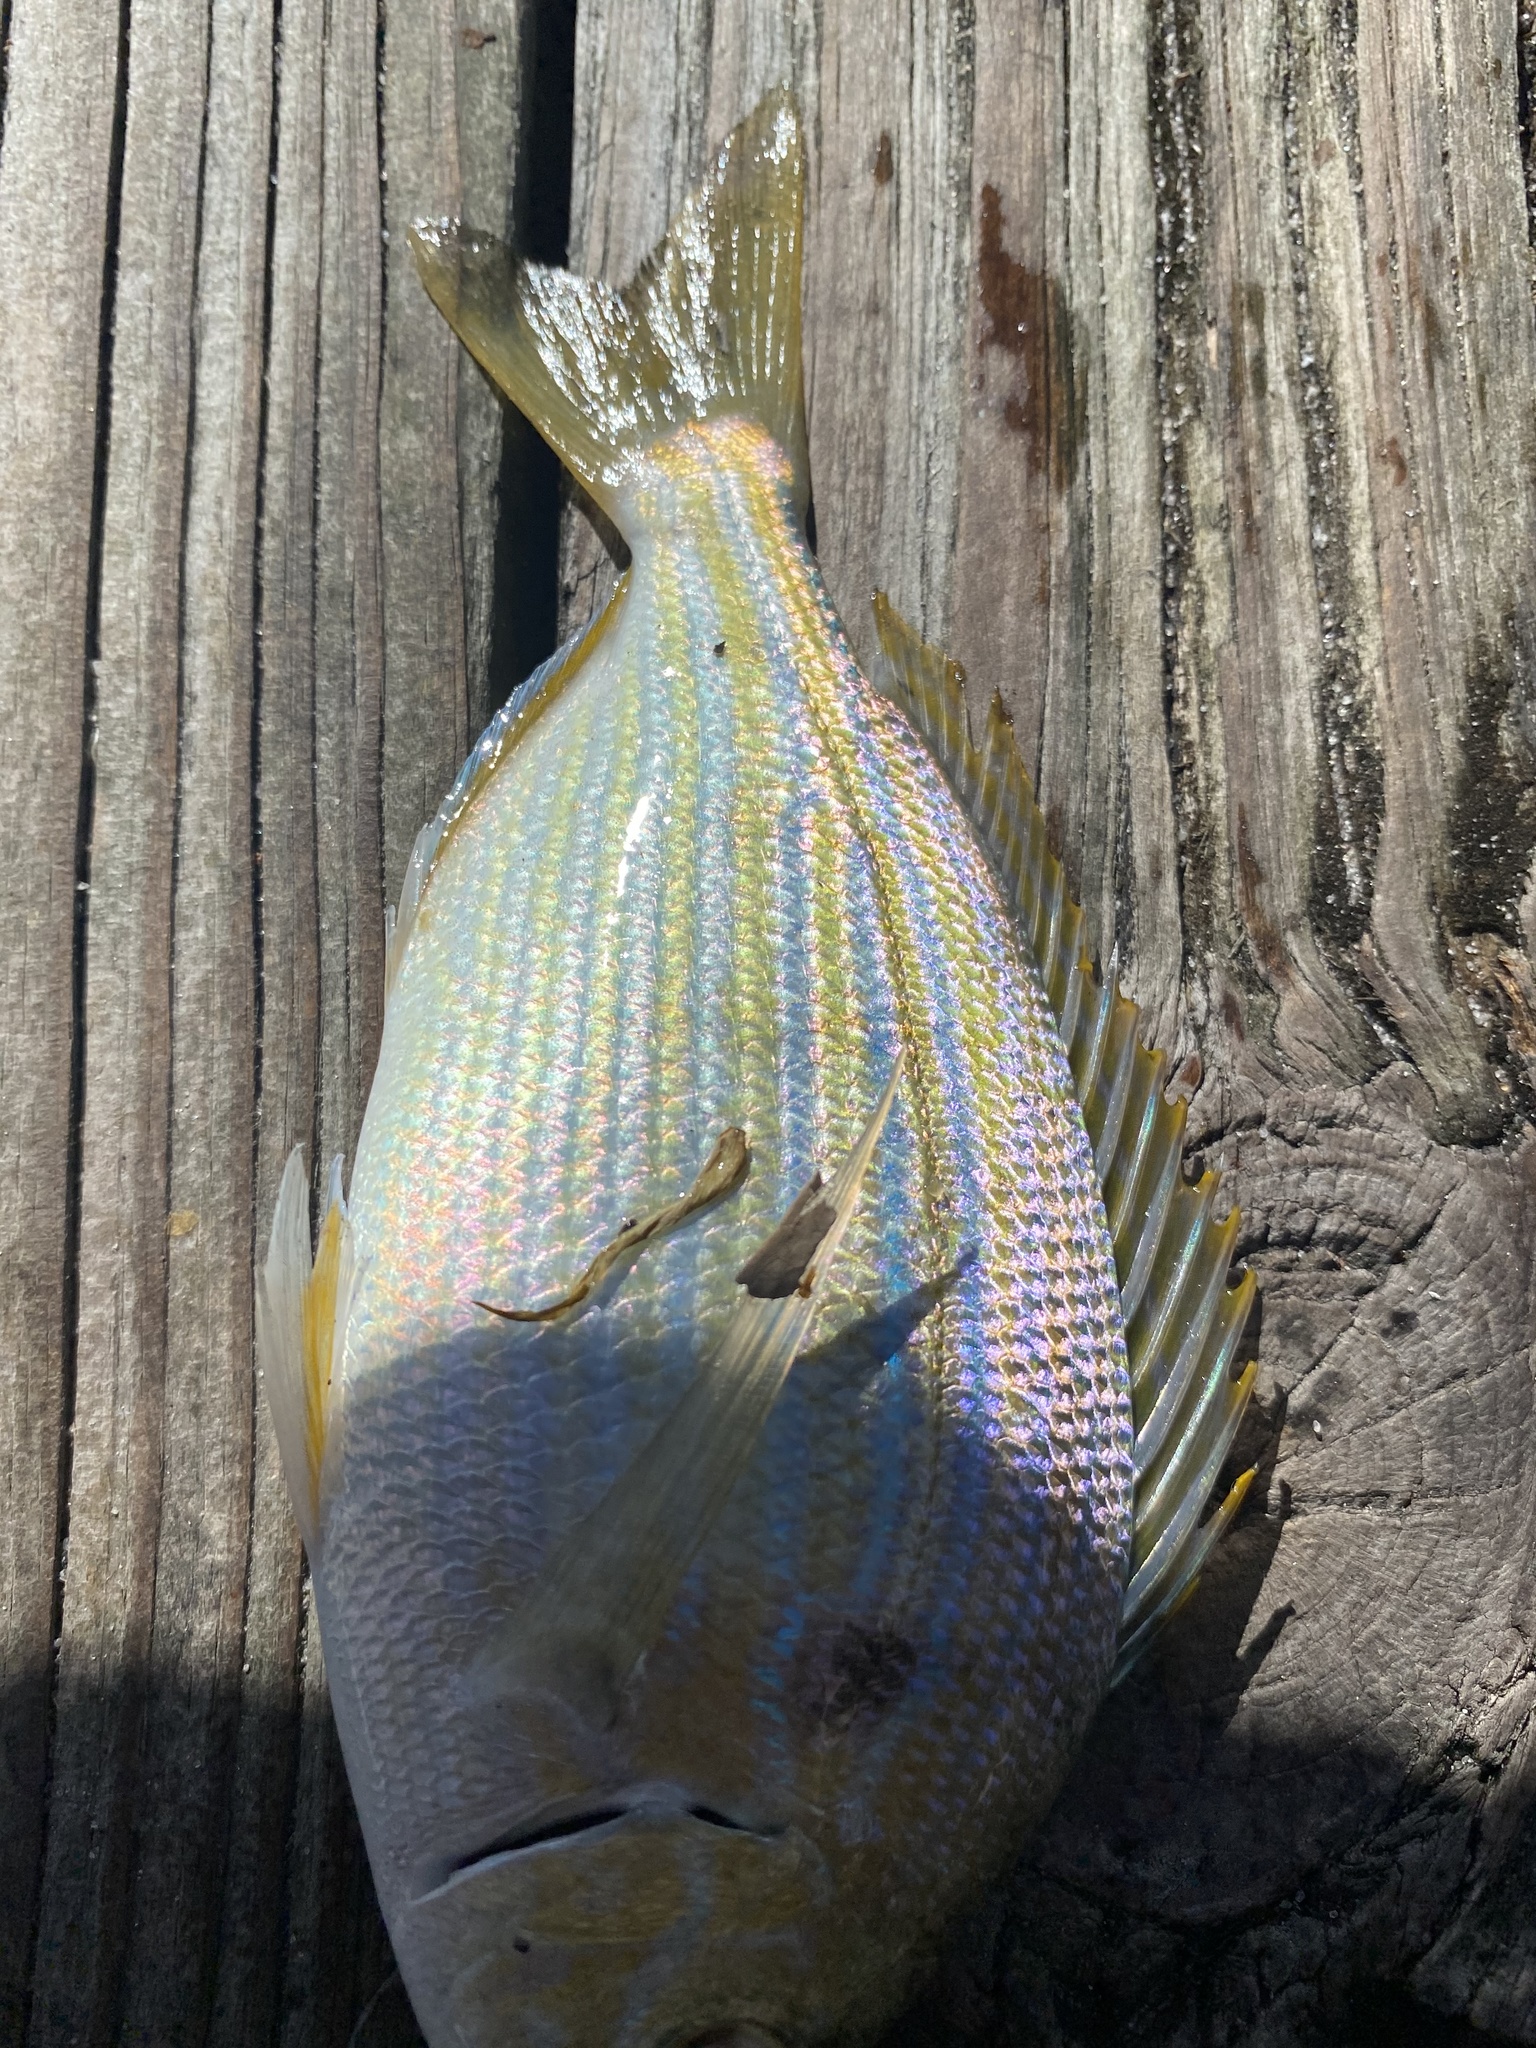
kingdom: Animalia
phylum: Chordata
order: Perciformes
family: Sparidae
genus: Lagodon
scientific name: Lagodon rhomboides
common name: Pinfish
